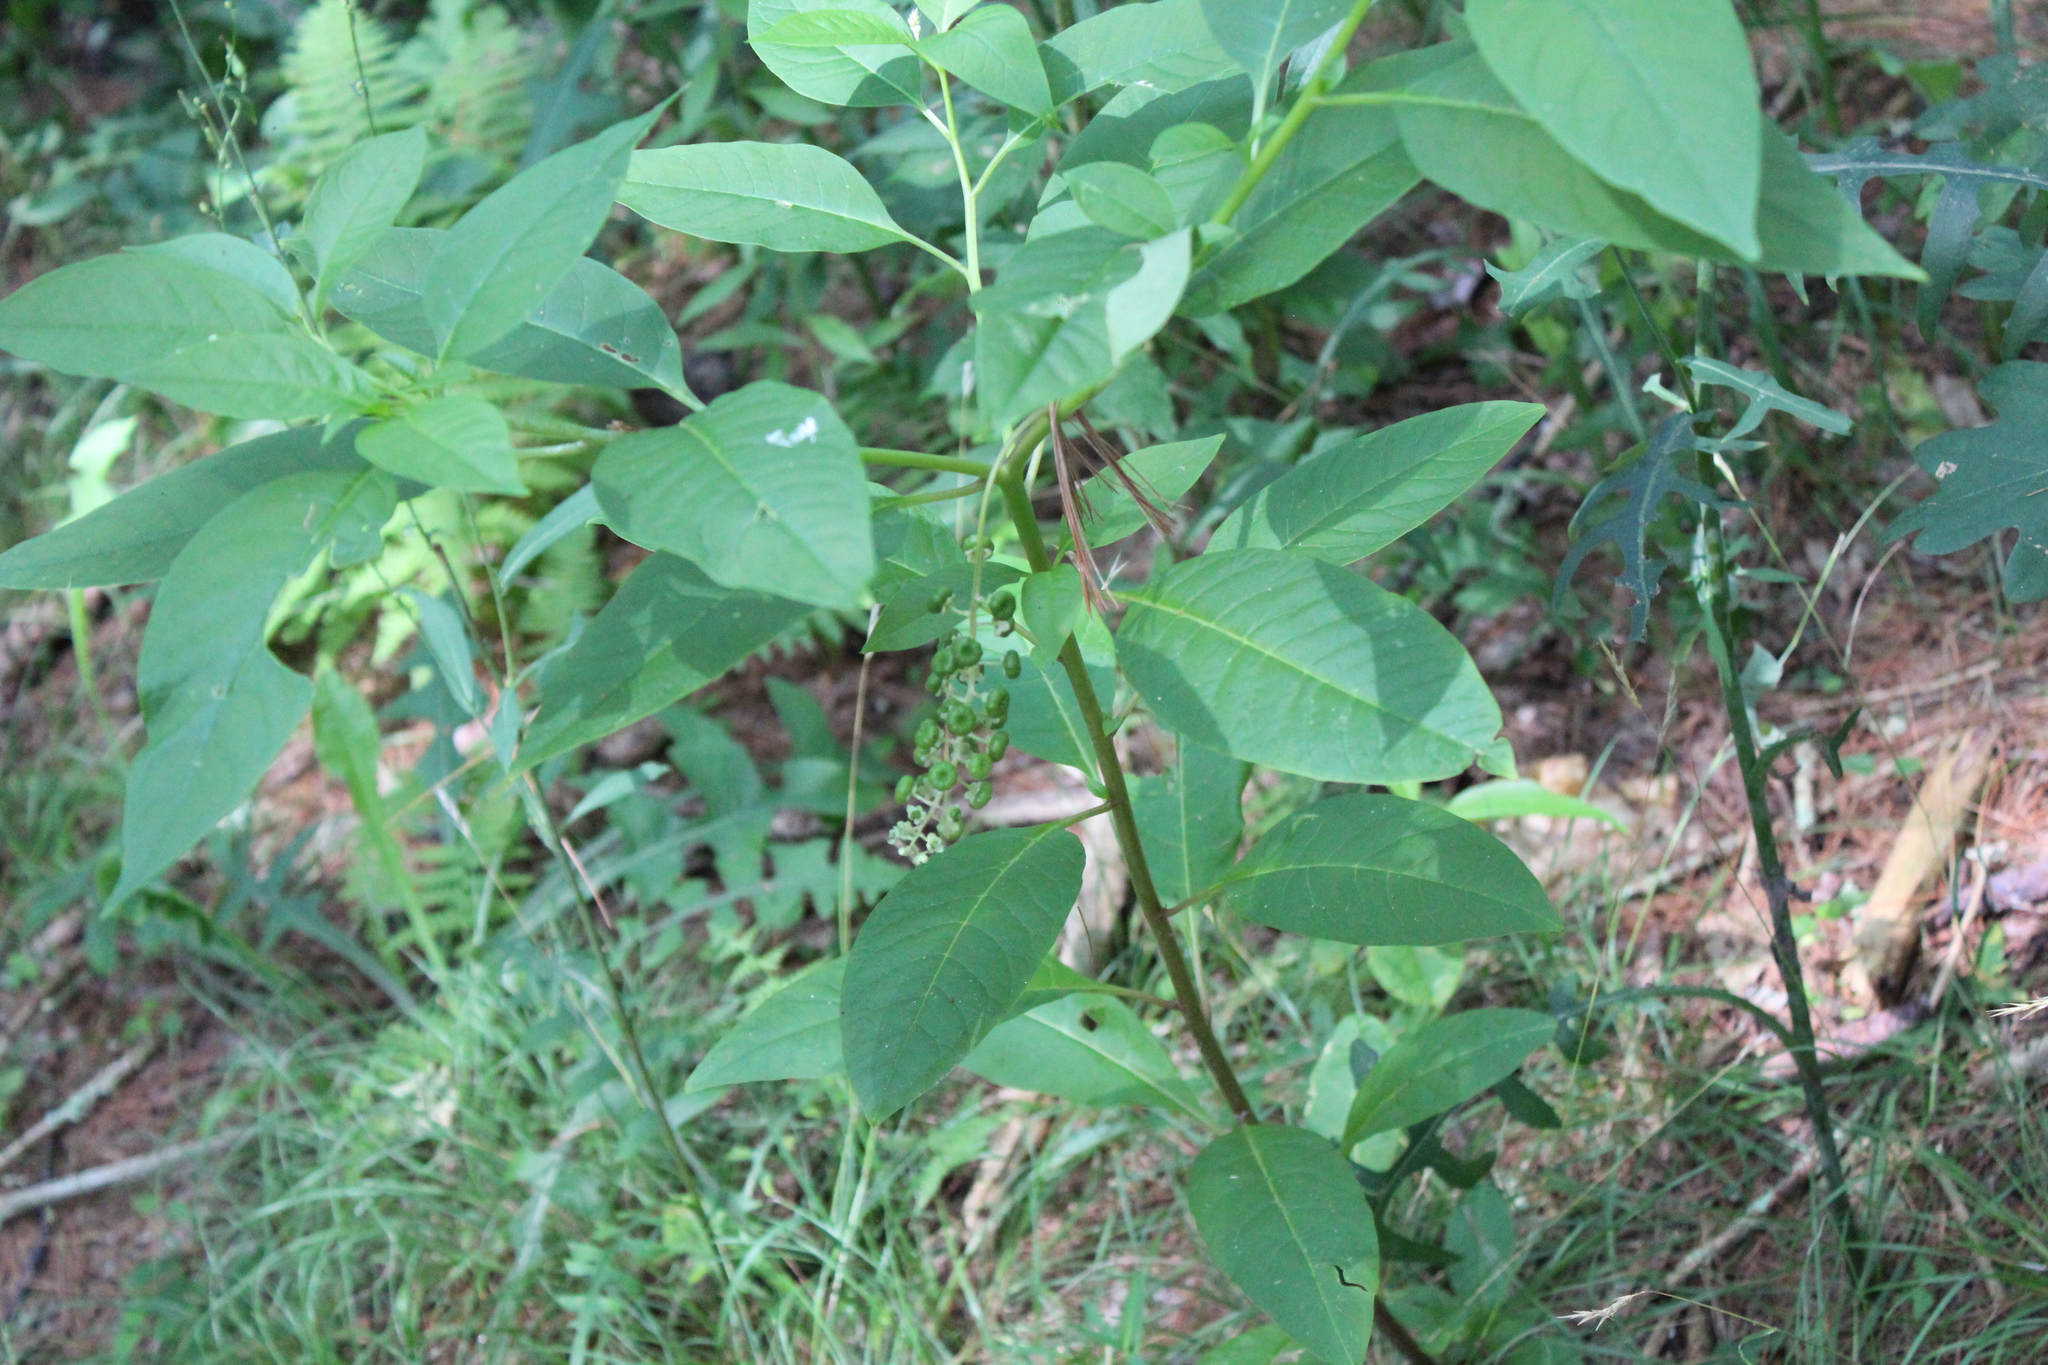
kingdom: Plantae
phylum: Tracheophyta
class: Magnoliopsida
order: Caryophyllales
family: Phytolaccaceae
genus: Phytolacca
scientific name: Phytolacca americana
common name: American pokeweed
